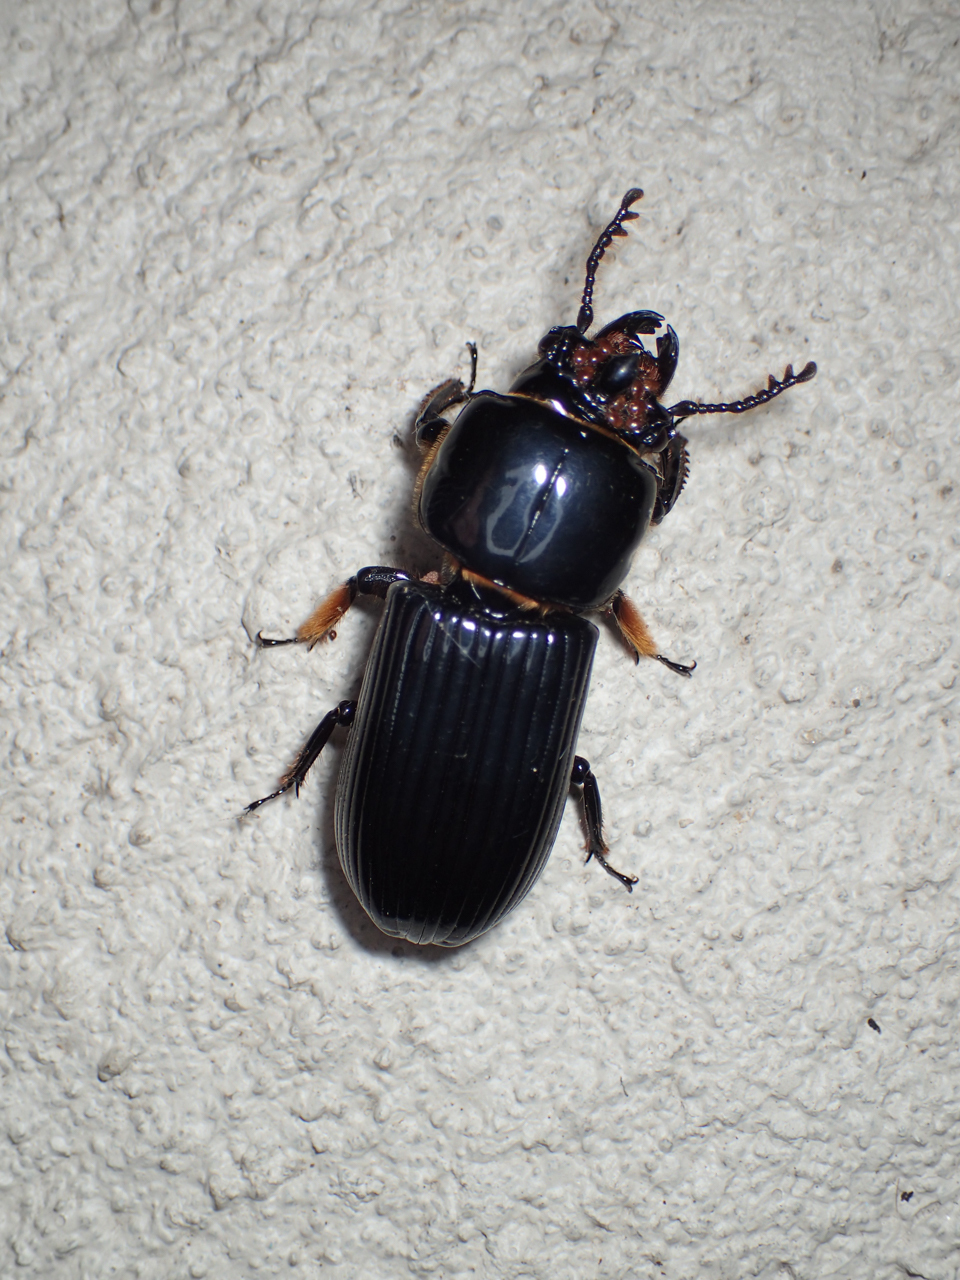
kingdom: Animalia
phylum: Arthropoda
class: Insecta
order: Coleoptera
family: Passalidae
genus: Odontotaenius
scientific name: Odontotaenius disjunctus
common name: Patent leather beetle
